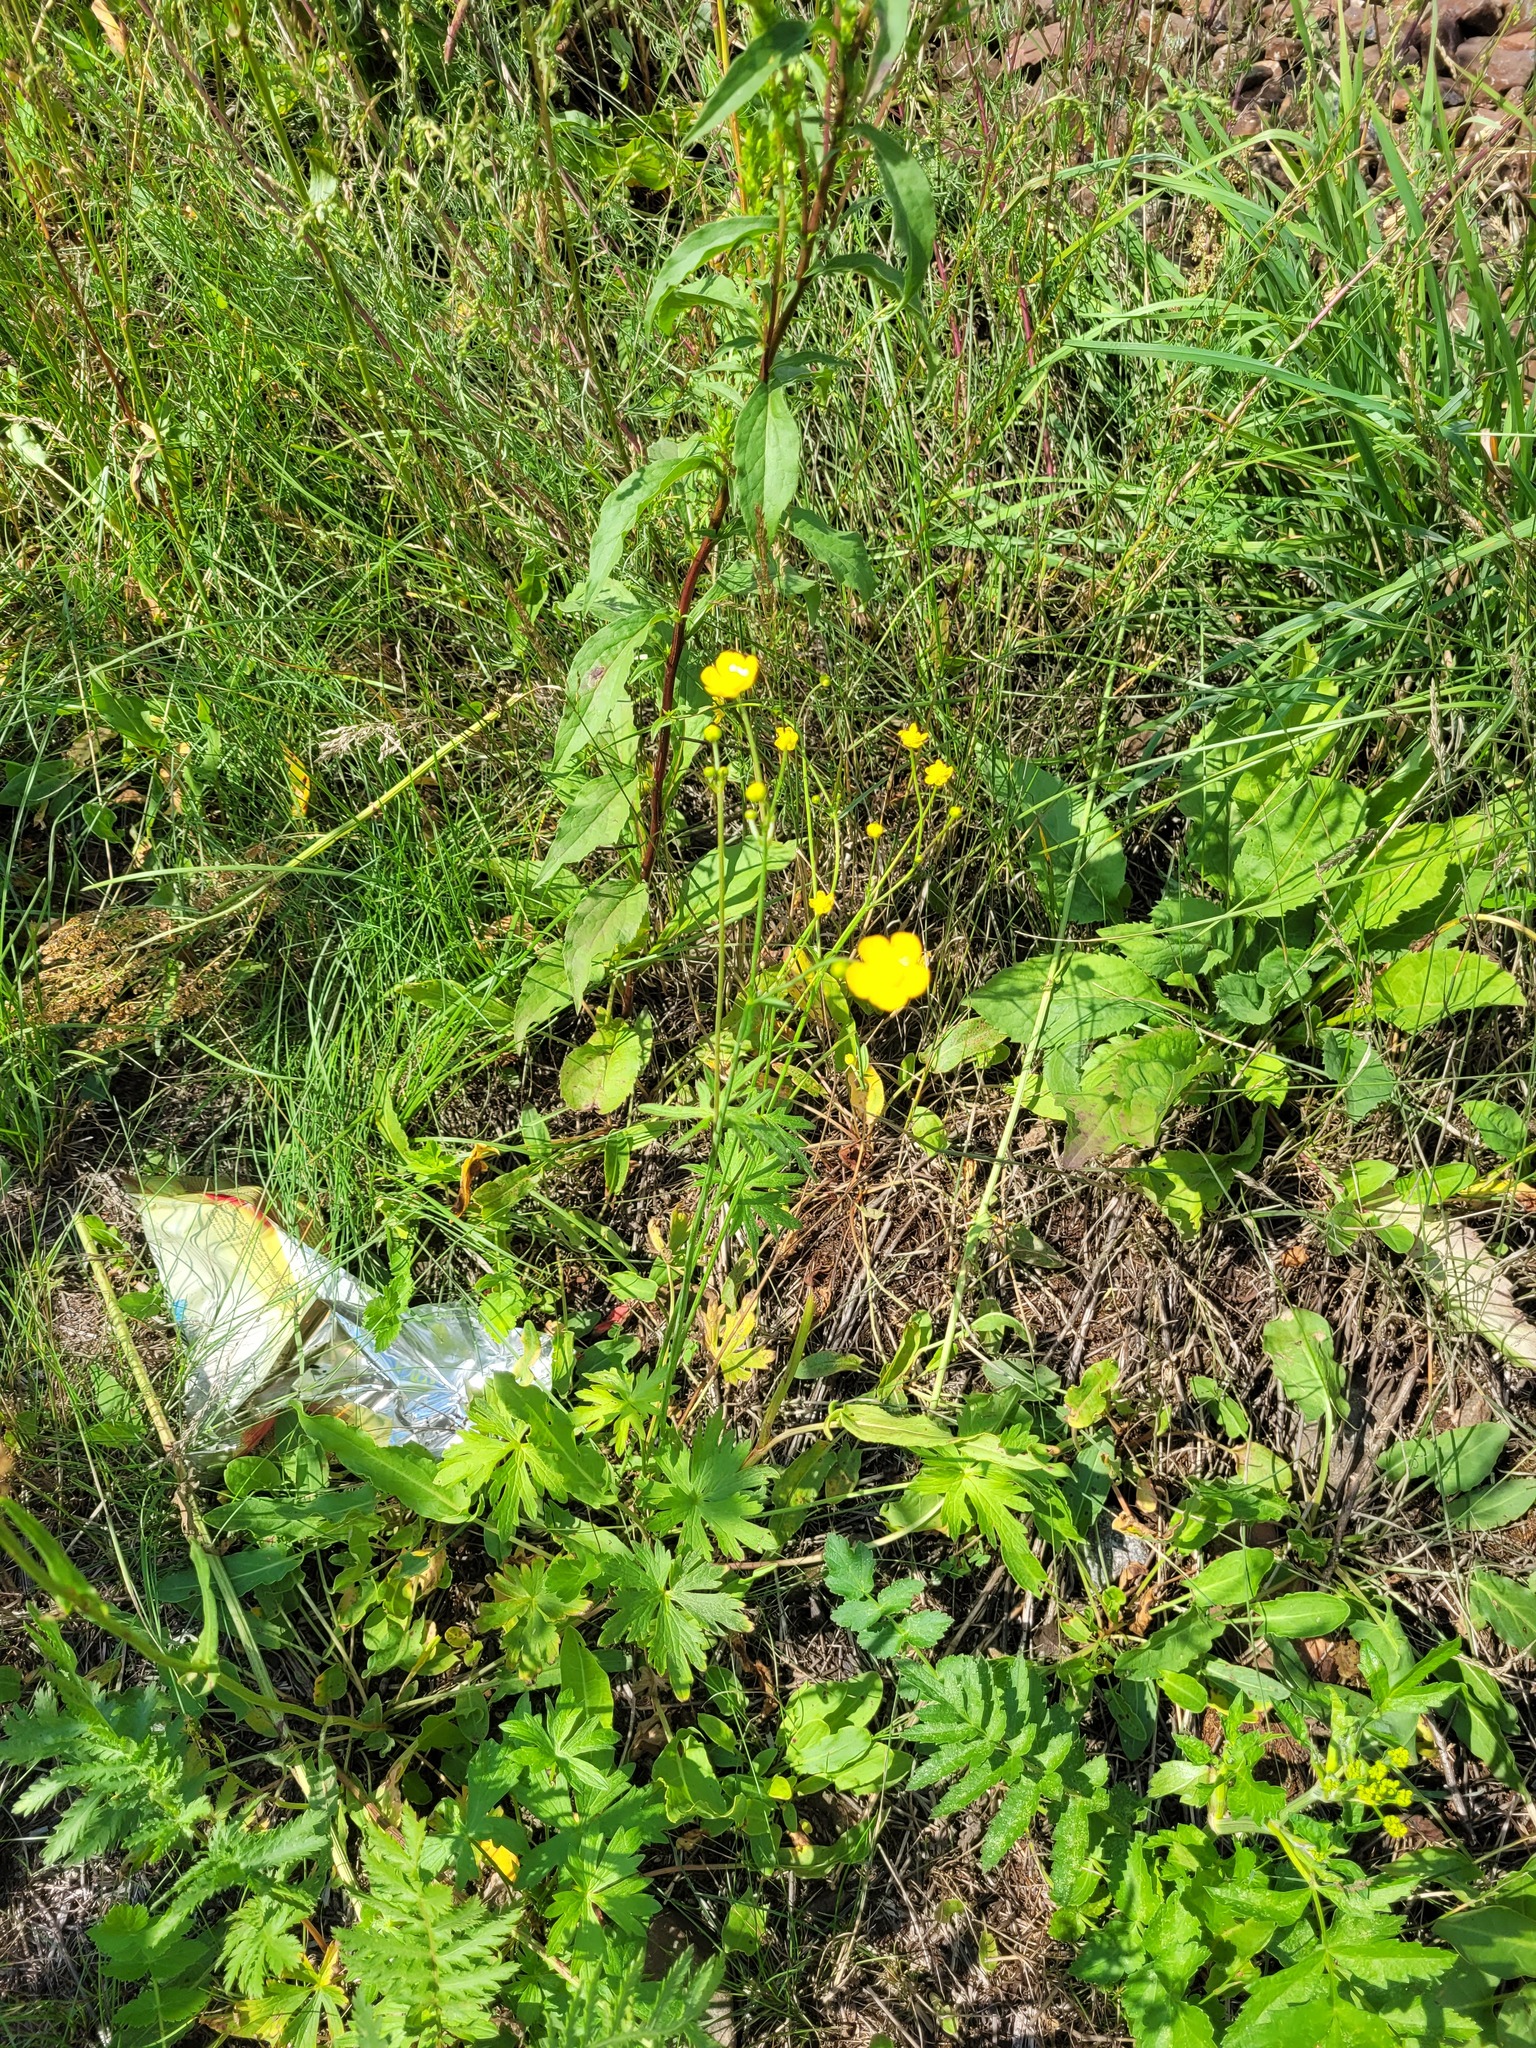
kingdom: Plantae
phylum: Tracheophyta
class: Magnoliopsida
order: Ranunculales
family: Ranunculaceae
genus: Ranunculus
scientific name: Ranunculus acris
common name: Meadow buttercup
